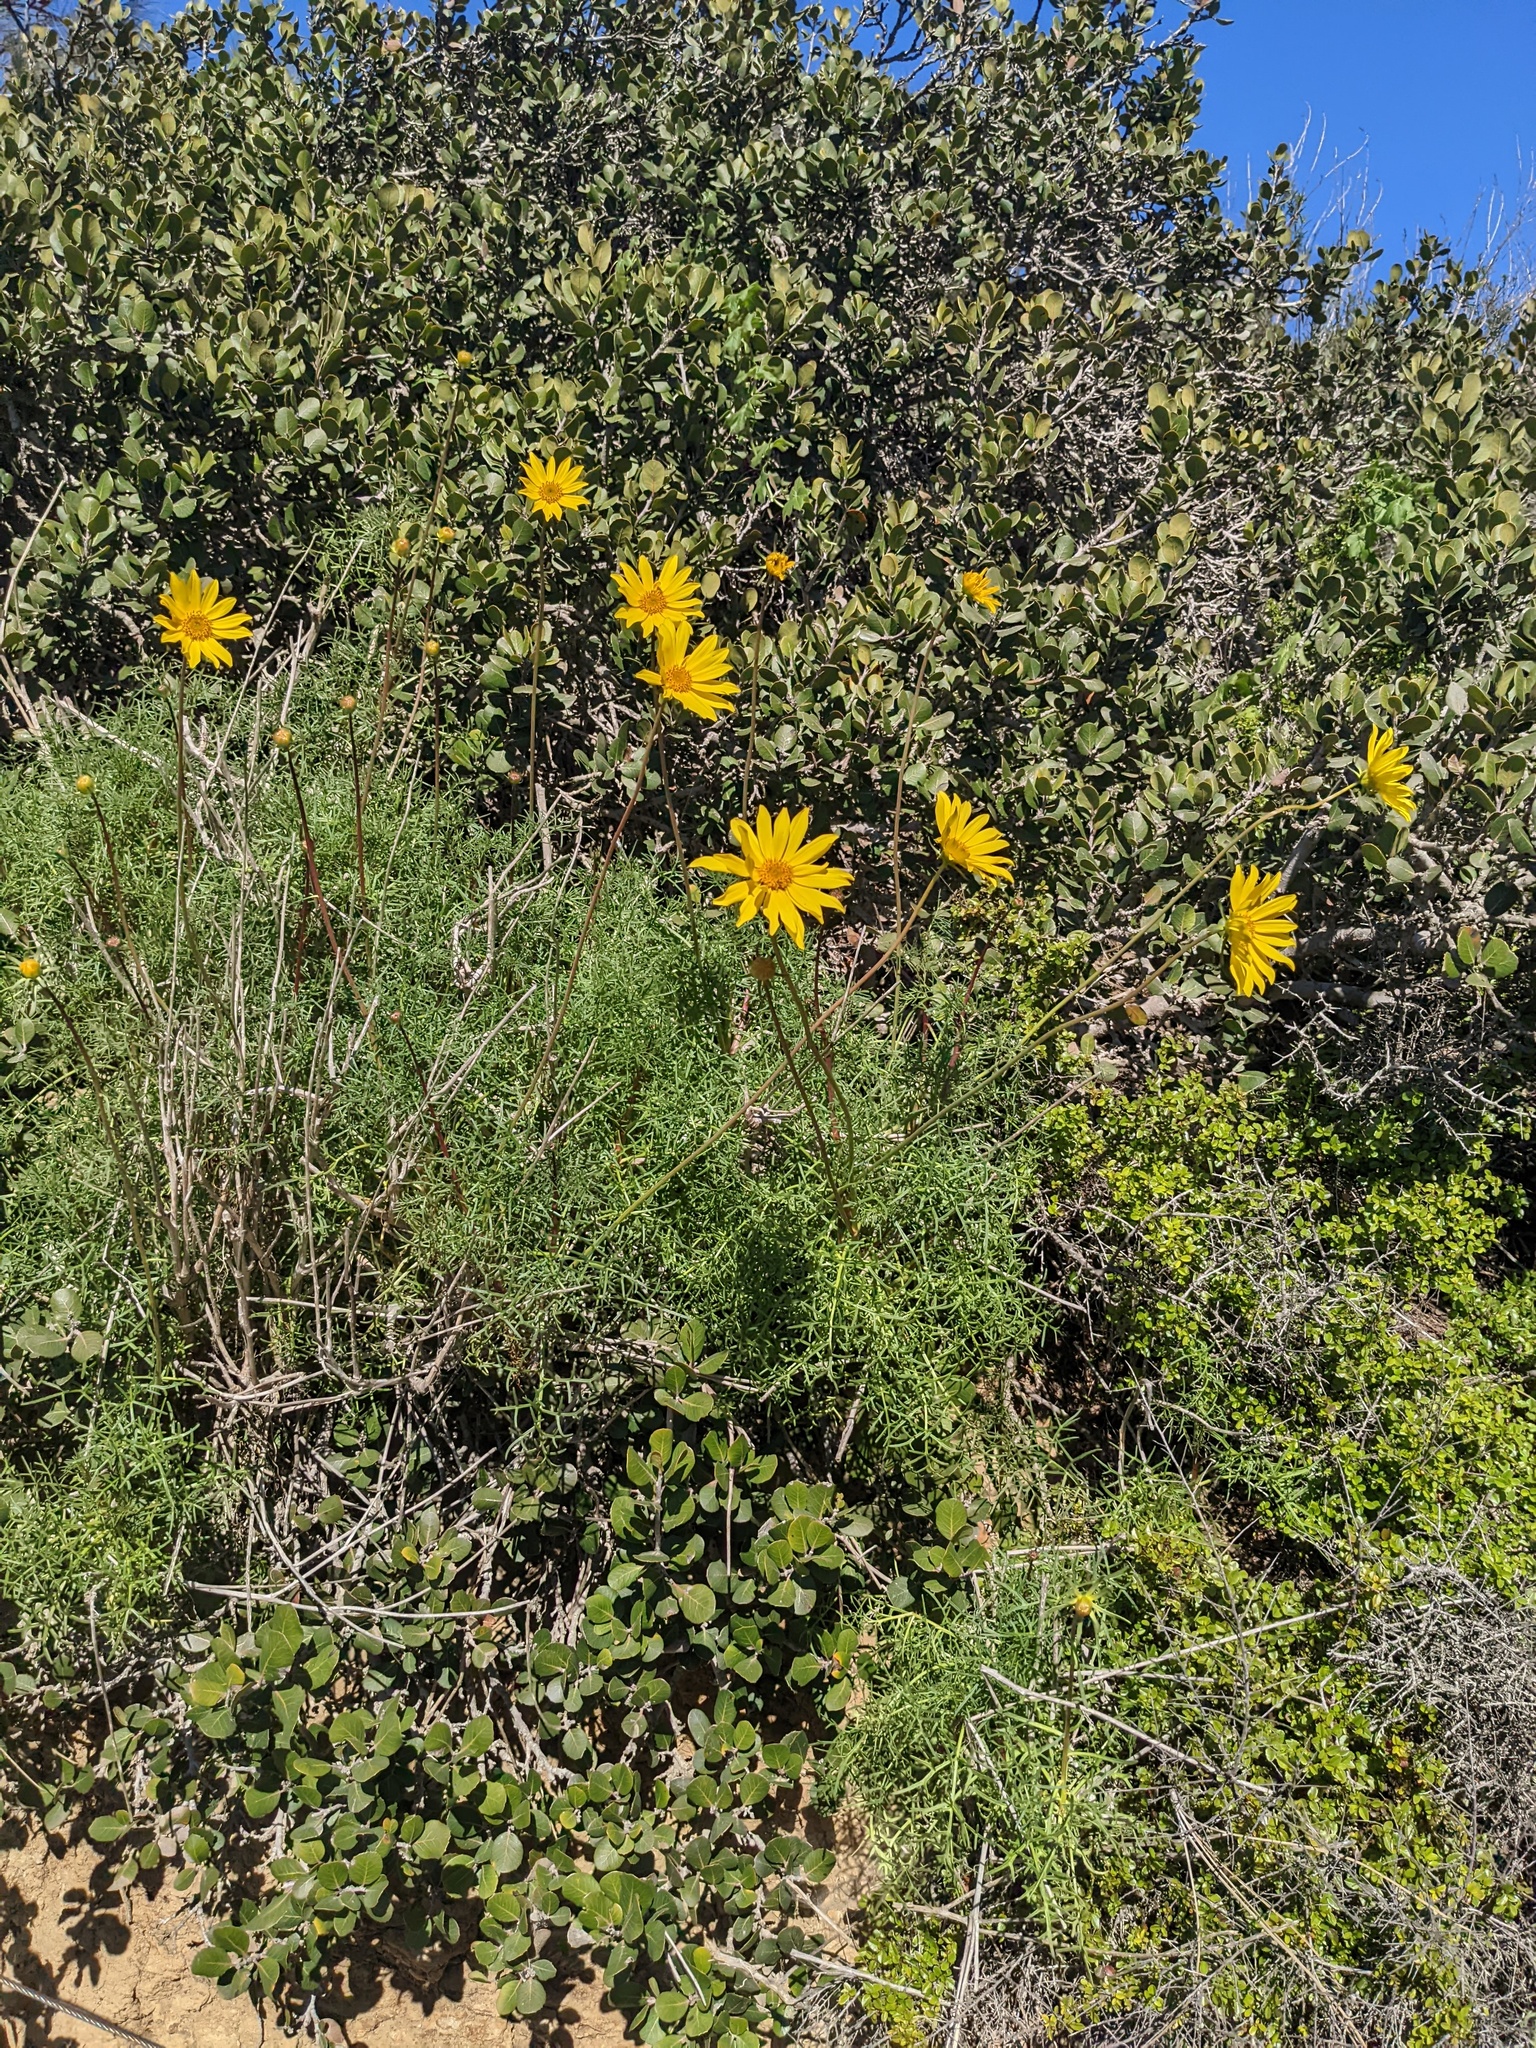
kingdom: Plantae
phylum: Tracheophyta
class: Magnoliopsida
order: Asterales
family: Asteraceae
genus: Coreopsis
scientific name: Coreopsis maritima
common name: Sea-dahlia
